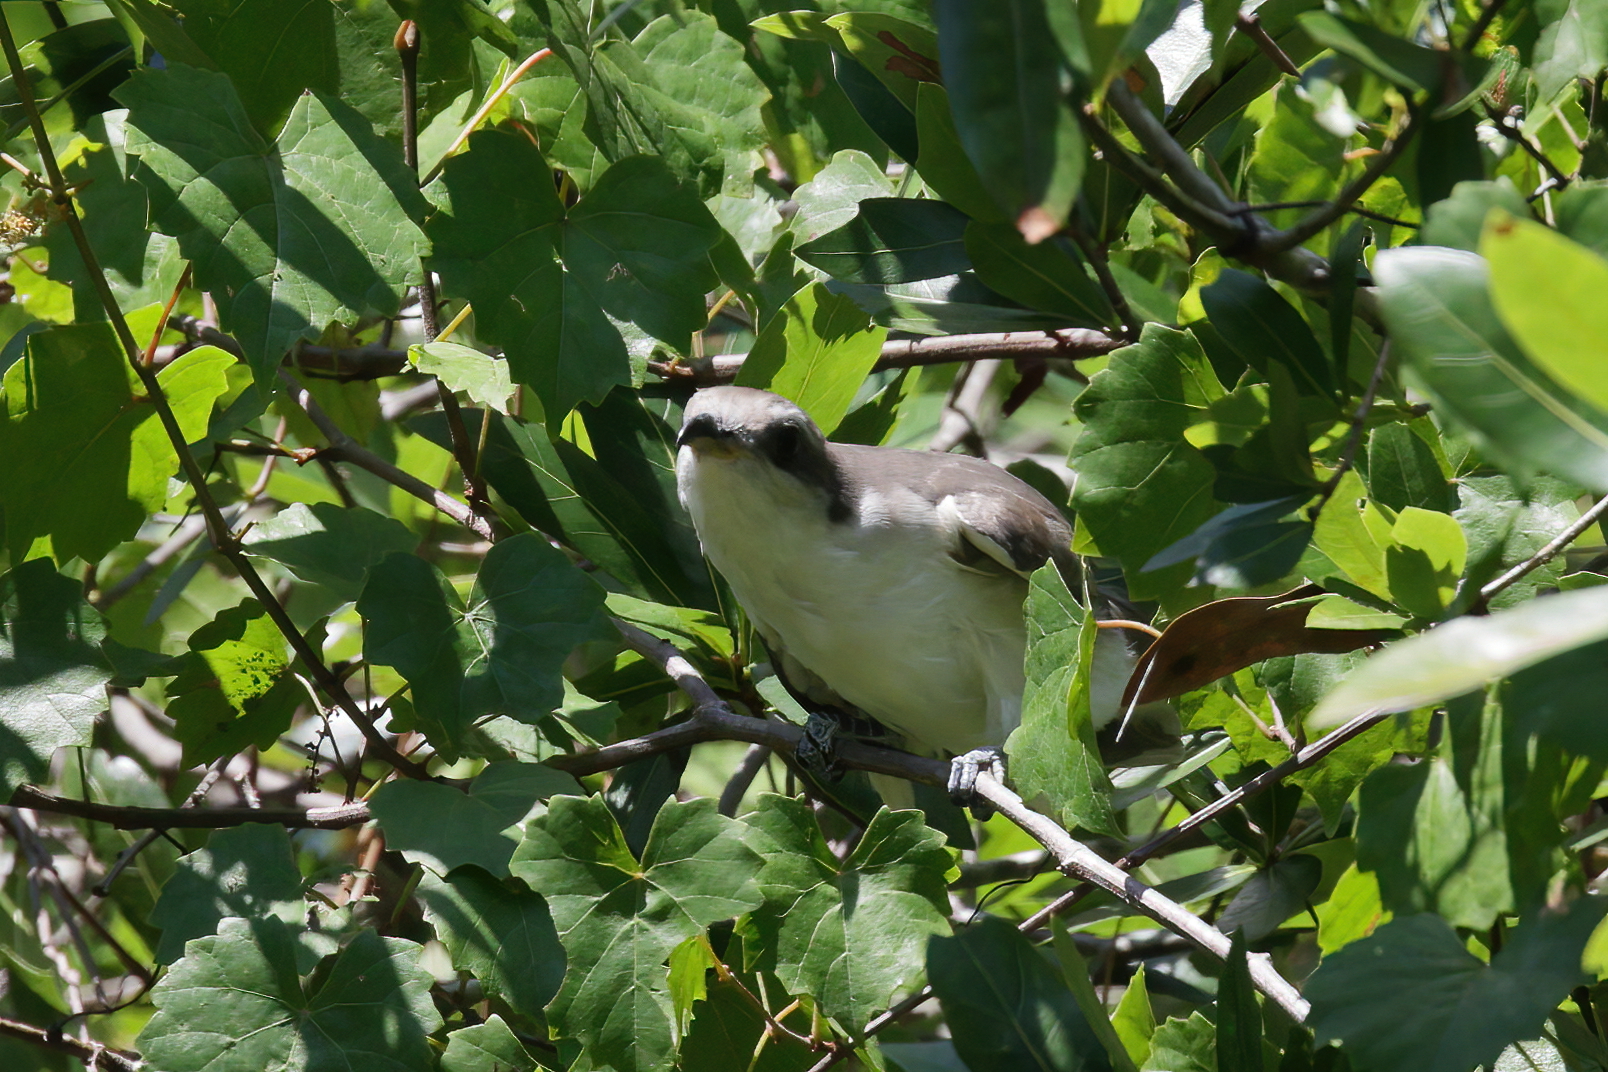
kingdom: Animalia
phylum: Chordata
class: Aves
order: Cuculiformes
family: Cuculidae
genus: Coccyzus
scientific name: Coccyzus americanus
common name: Yellow-billed cuckoo
